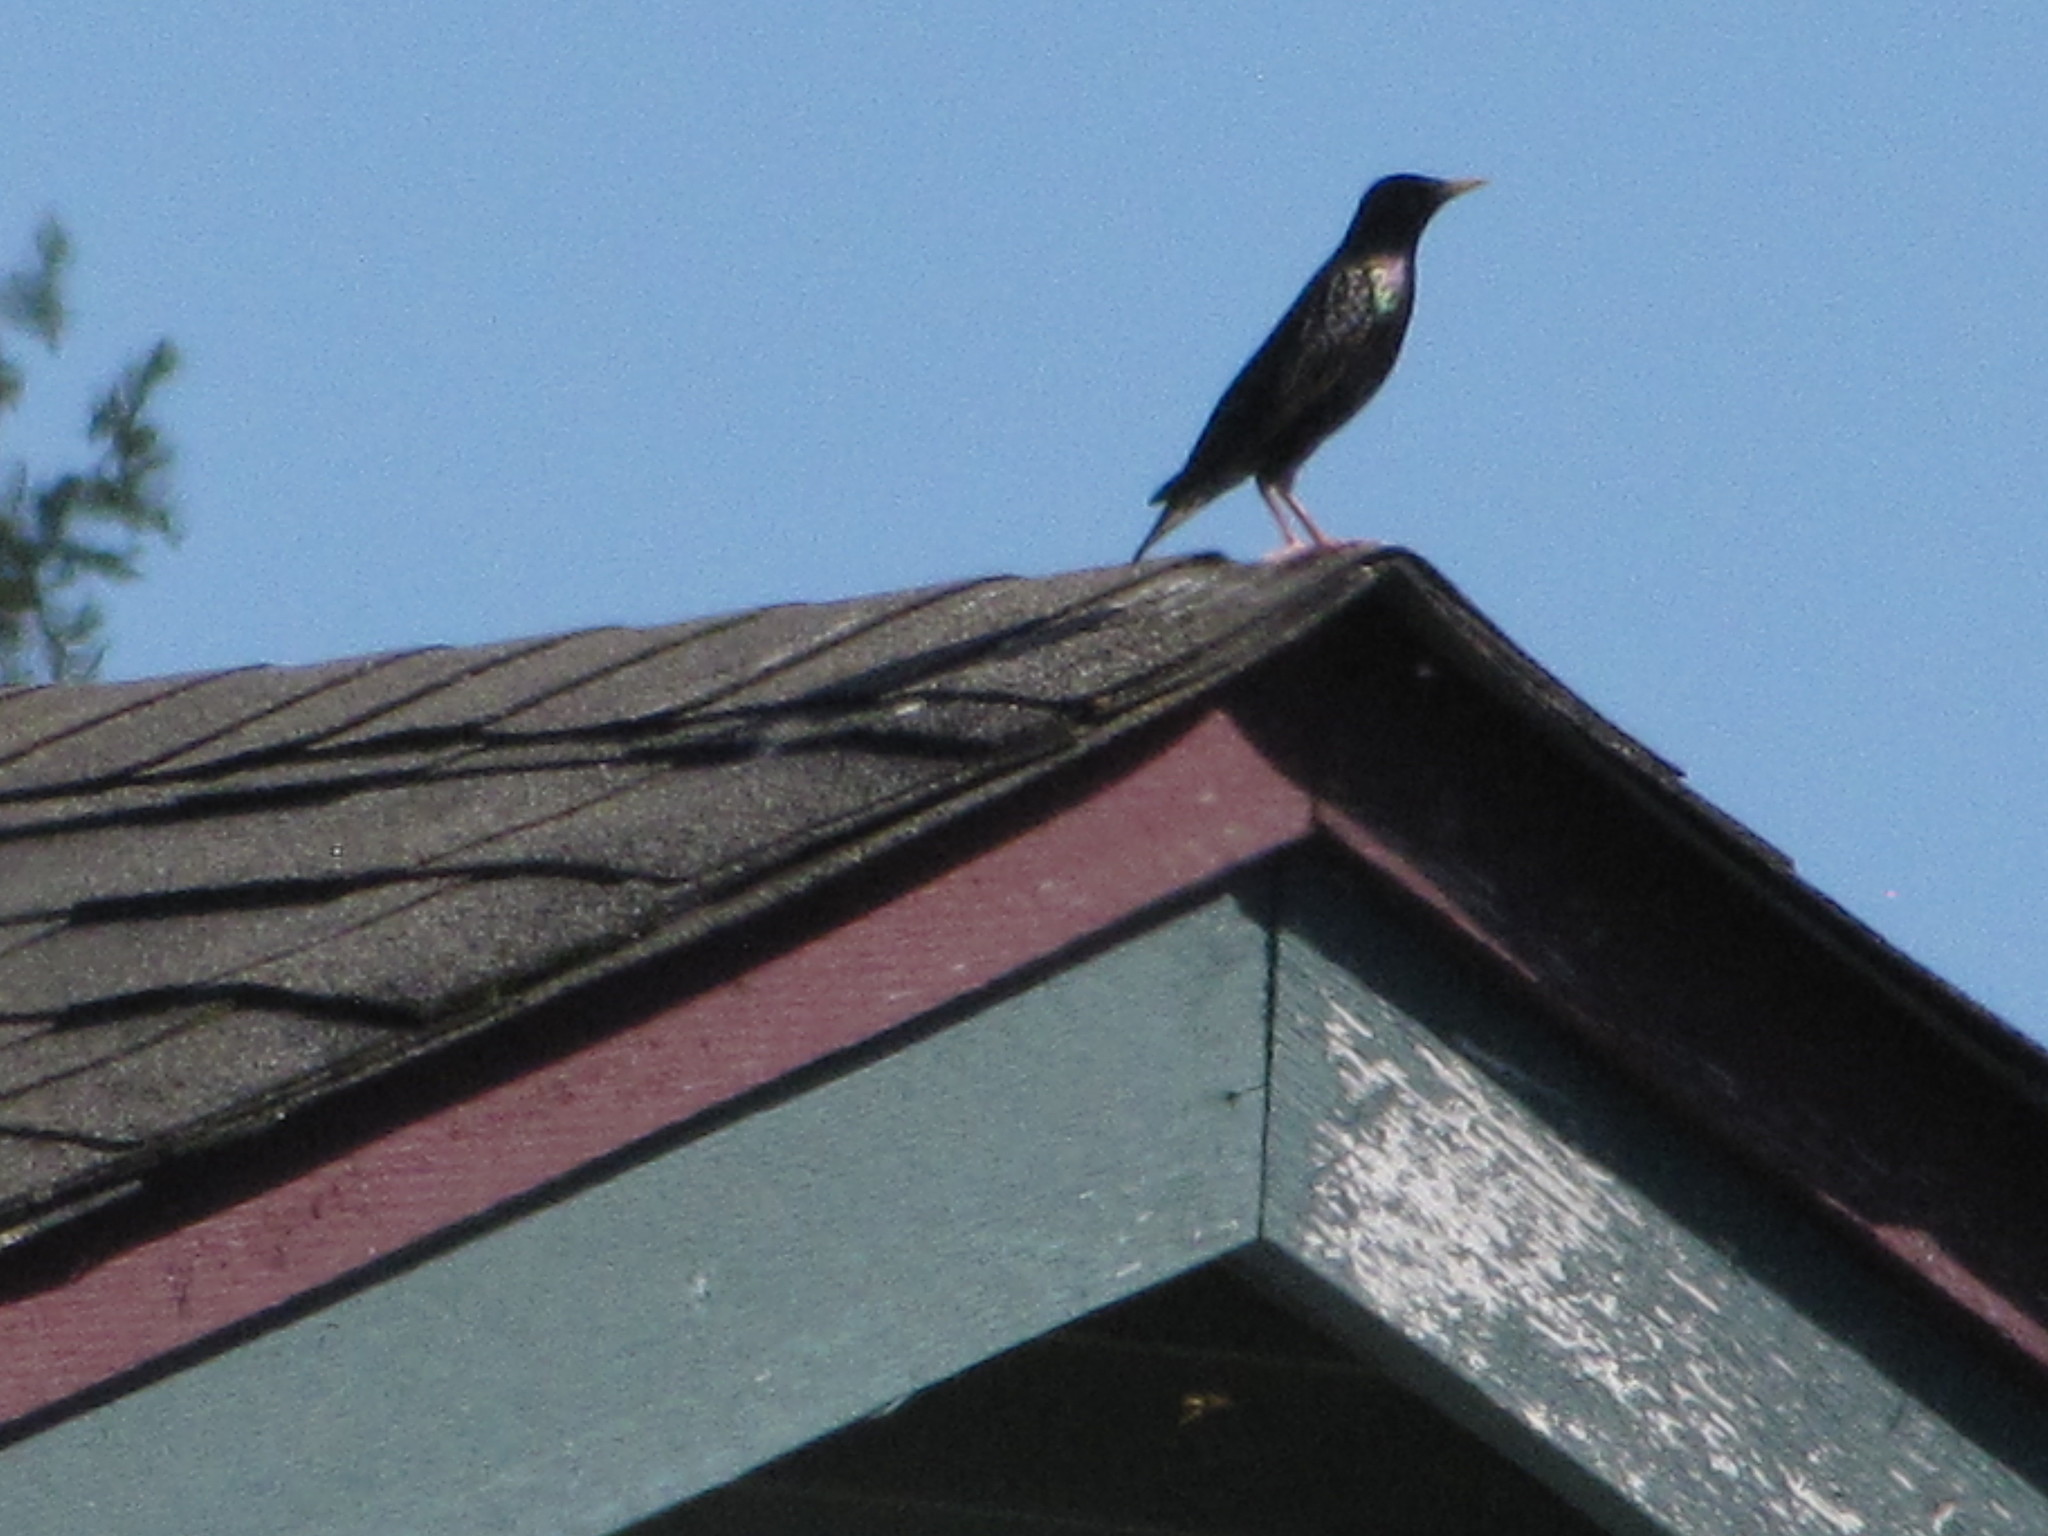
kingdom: Animalia
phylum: Chordata
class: Aves
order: Passeriformes
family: Sturnidae
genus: Sturnus
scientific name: Sturnus vulgaris
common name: Common starling
